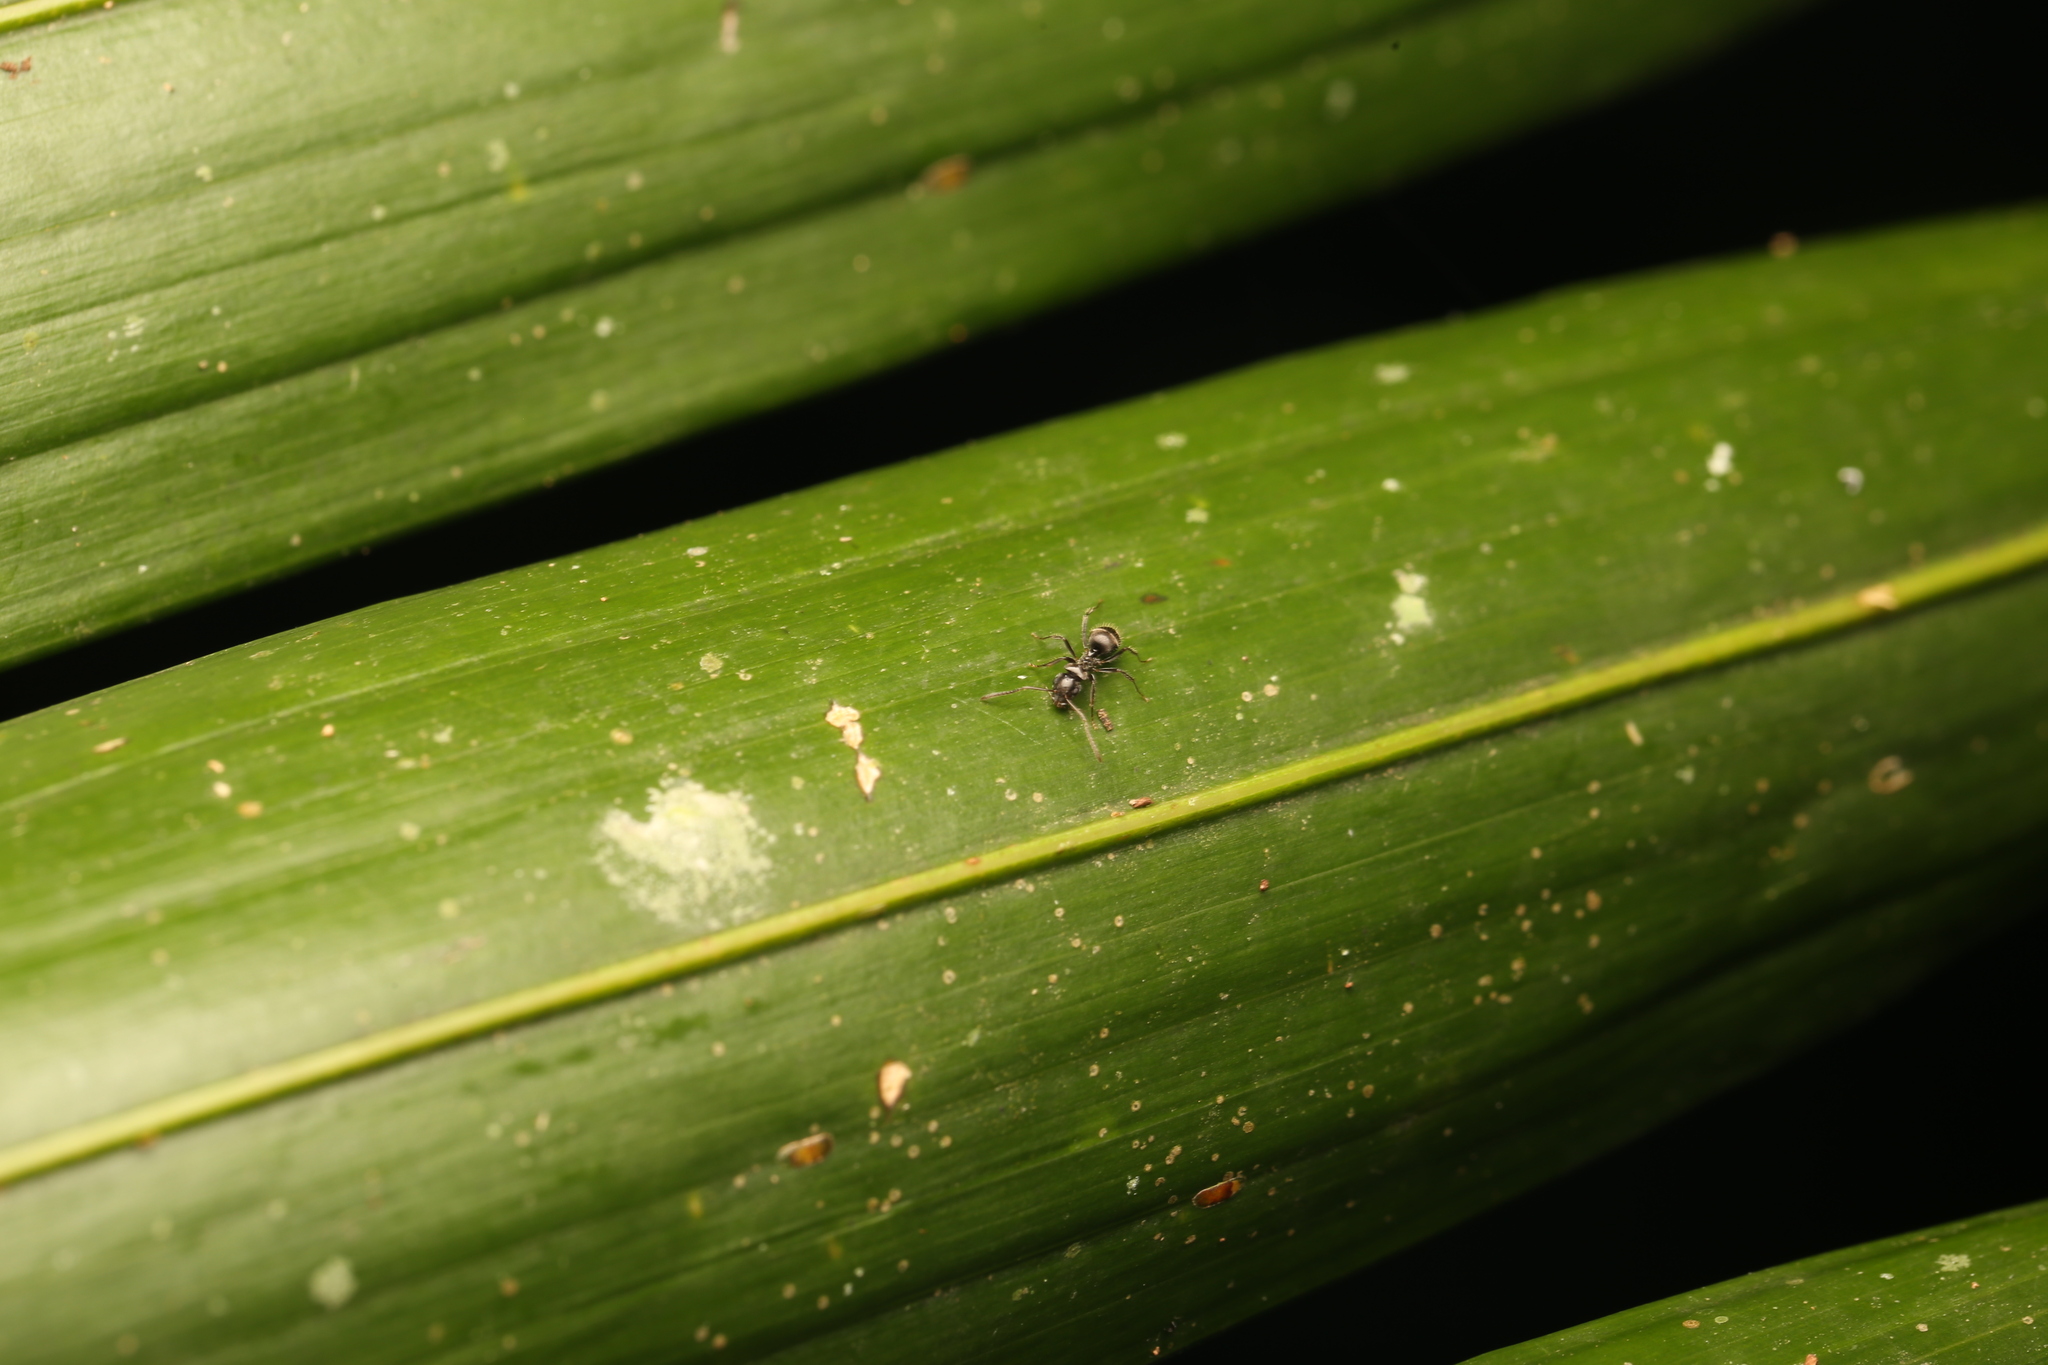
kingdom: Animalia
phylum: Arthropoda
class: Insecta
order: Hymenoptera
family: Formicidae
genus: Teratomyrmex
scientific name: Teratomyrmex greavesi
